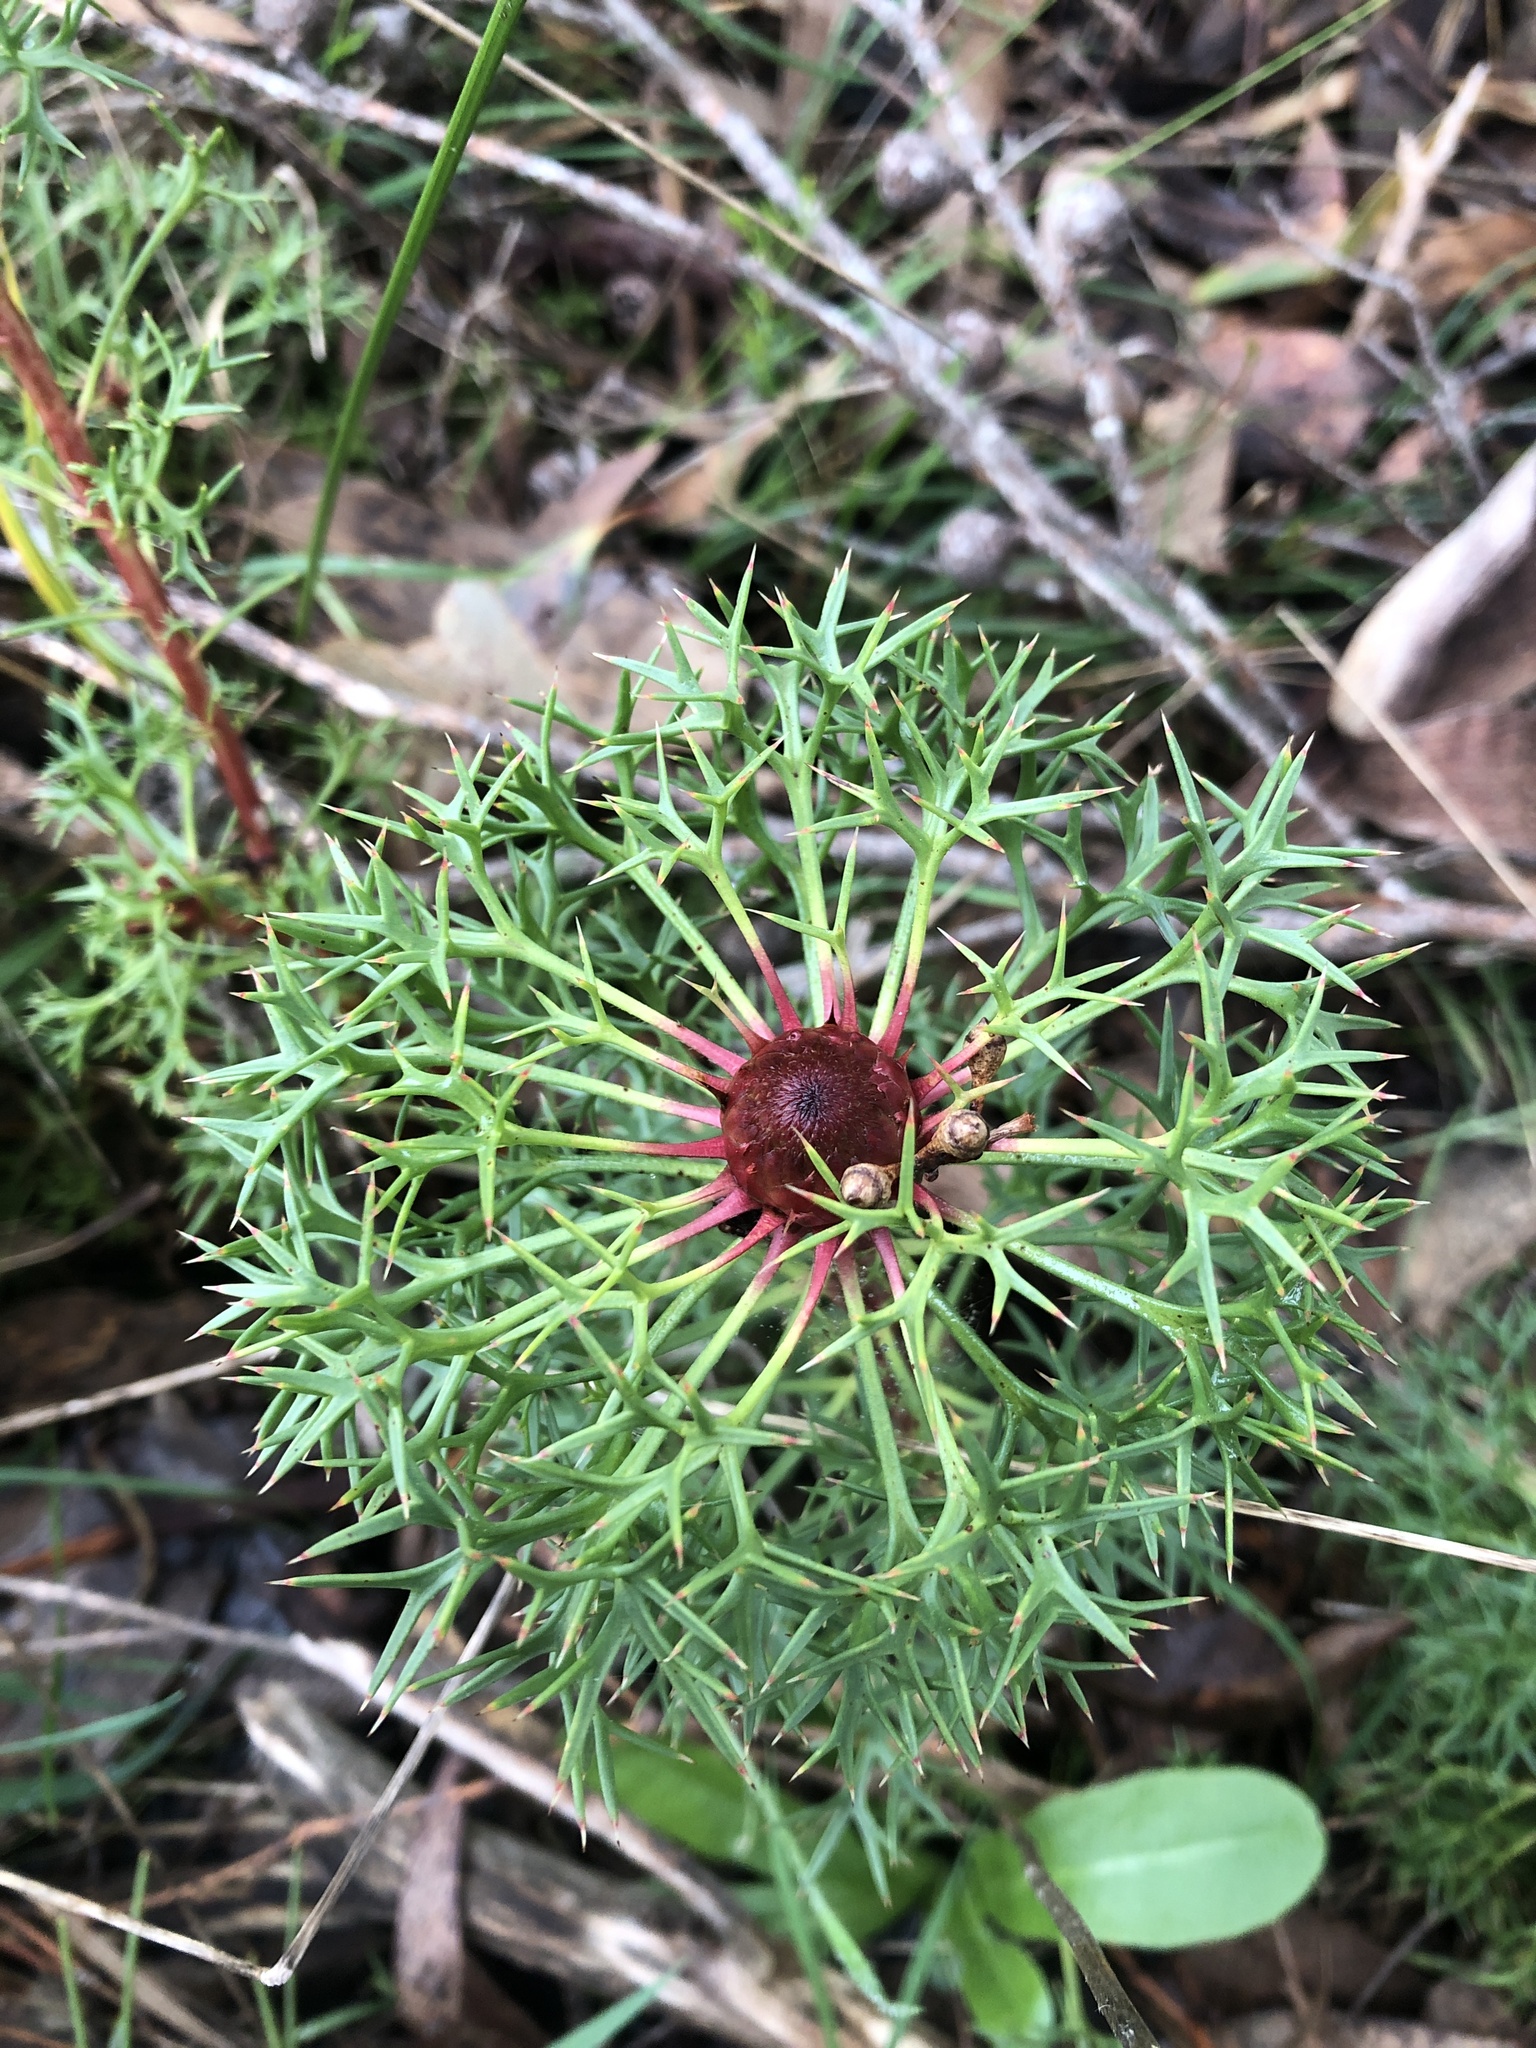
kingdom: Plantae
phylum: Tracheophyta
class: Magnoliopsida
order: Proteales
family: Proteaceae
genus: Isopogon
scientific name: Isopogon ceratophyllus
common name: Horny cone-bush
